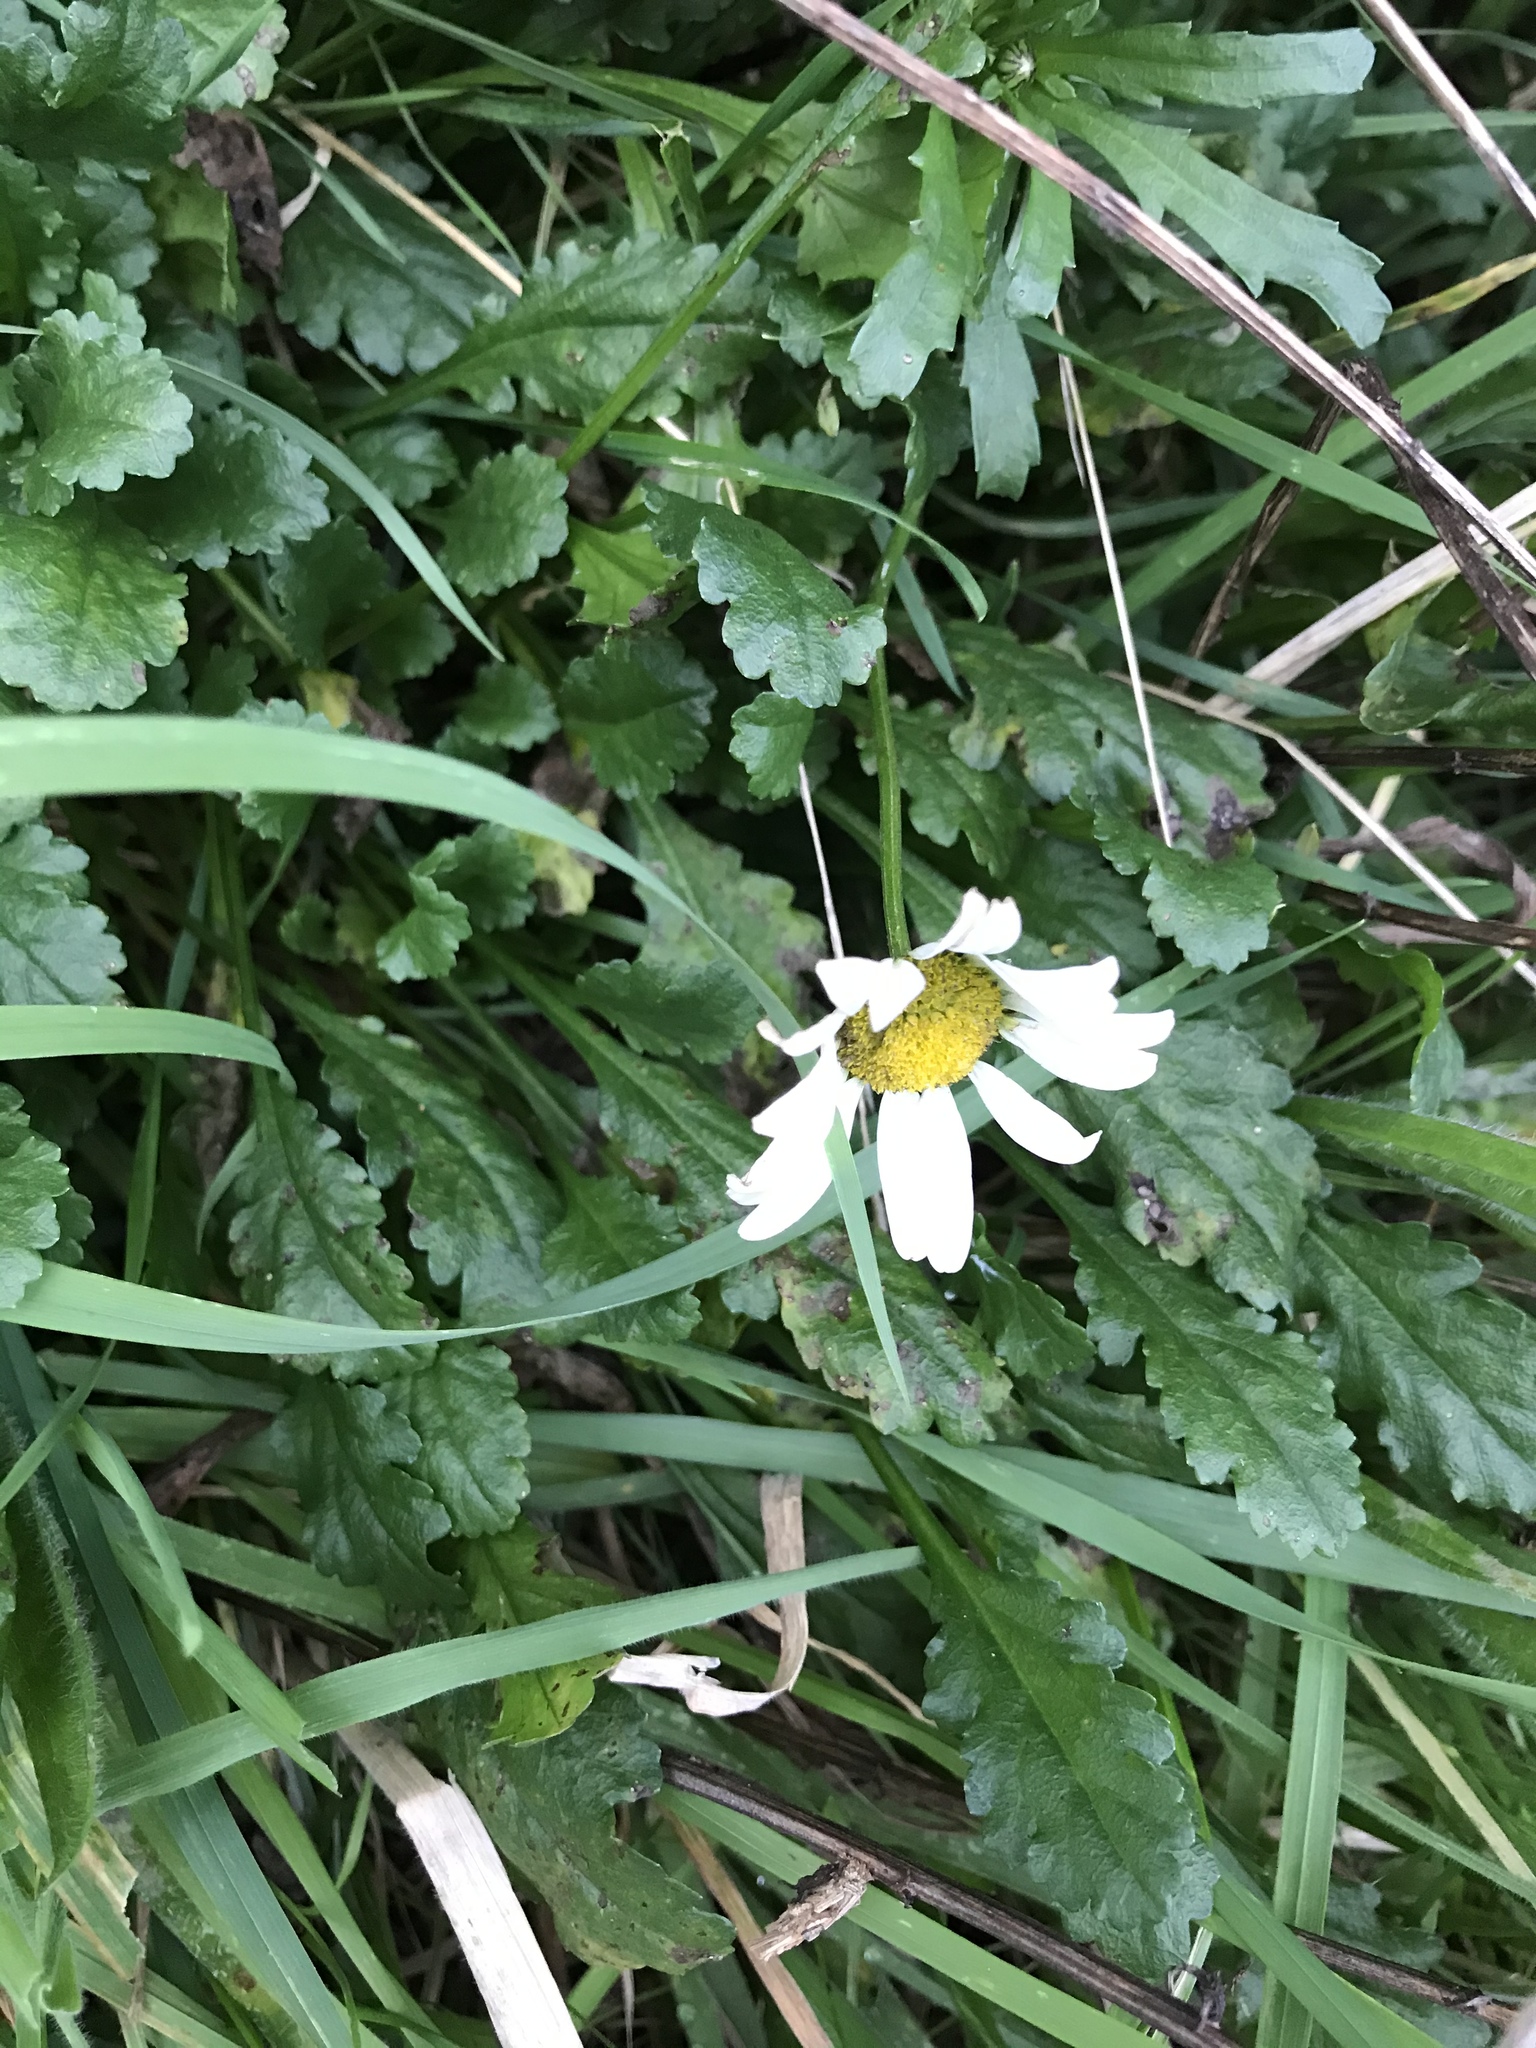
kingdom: Plantae
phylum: Tracheophyta
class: Magnoliopsida
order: Asterales
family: Asteraceae
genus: Leucanthemum
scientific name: Leucanthemum vulgare
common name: Oxeye daisy
